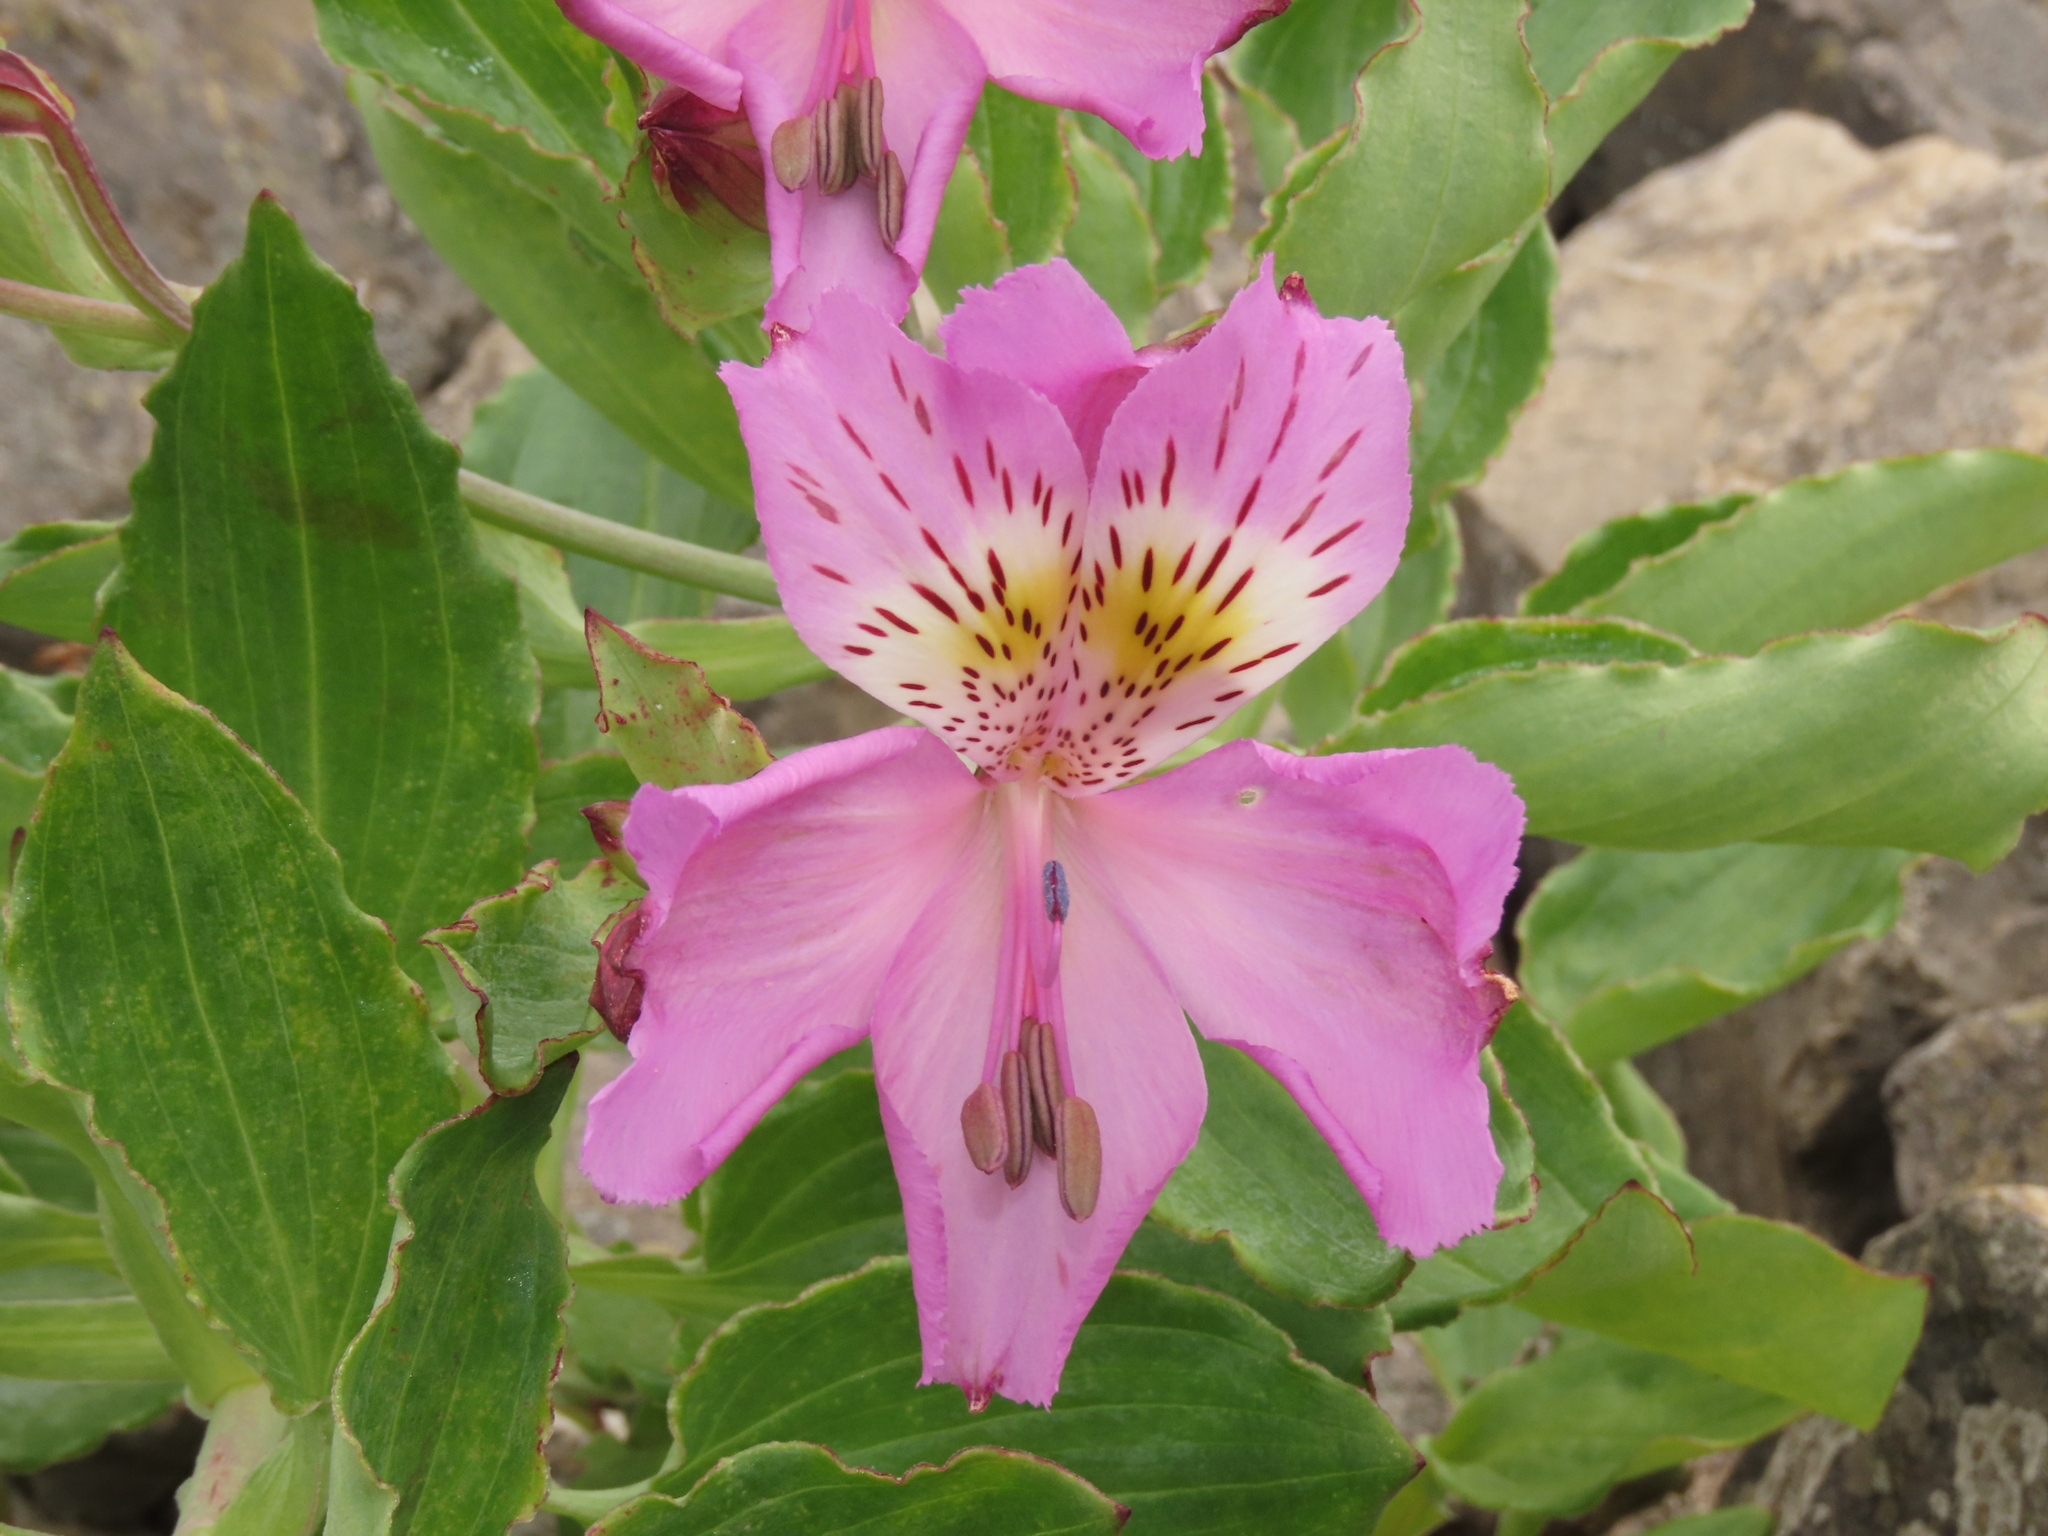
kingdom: Plantae
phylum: Tracheophyta
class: Liliopsida
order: Liliales
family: Alstroemeriaceae
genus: Alstroemeria
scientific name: Alstroemeria violacea
